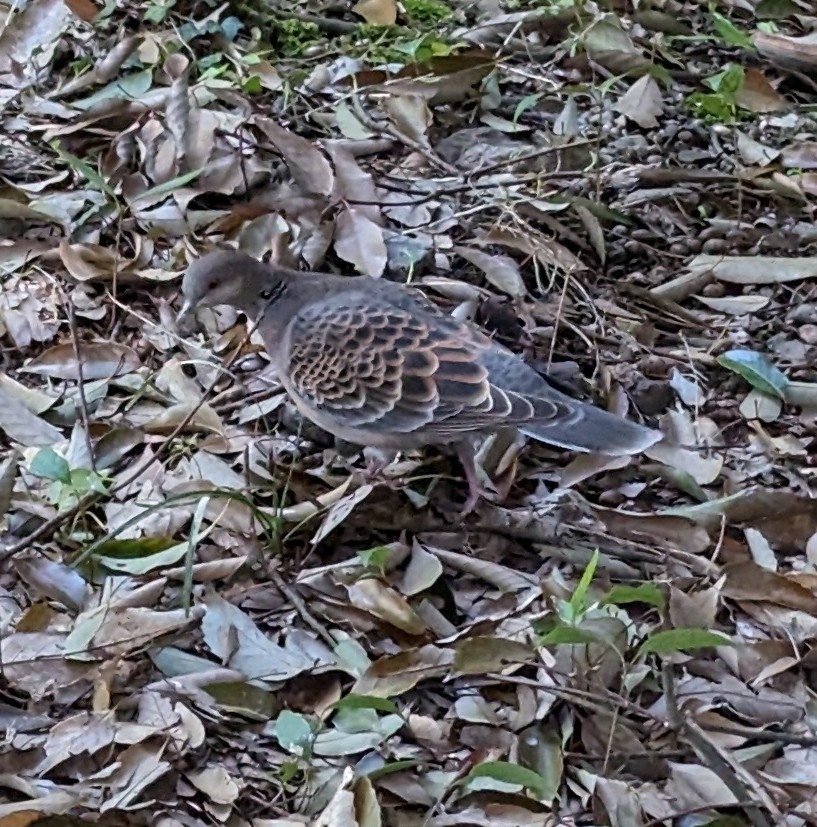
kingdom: Animalia
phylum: Chordata
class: Aves
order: Columbiformes
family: Columbidae
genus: Streptopelia
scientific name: Streptopelia orientalis
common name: Oriental turtle dove
